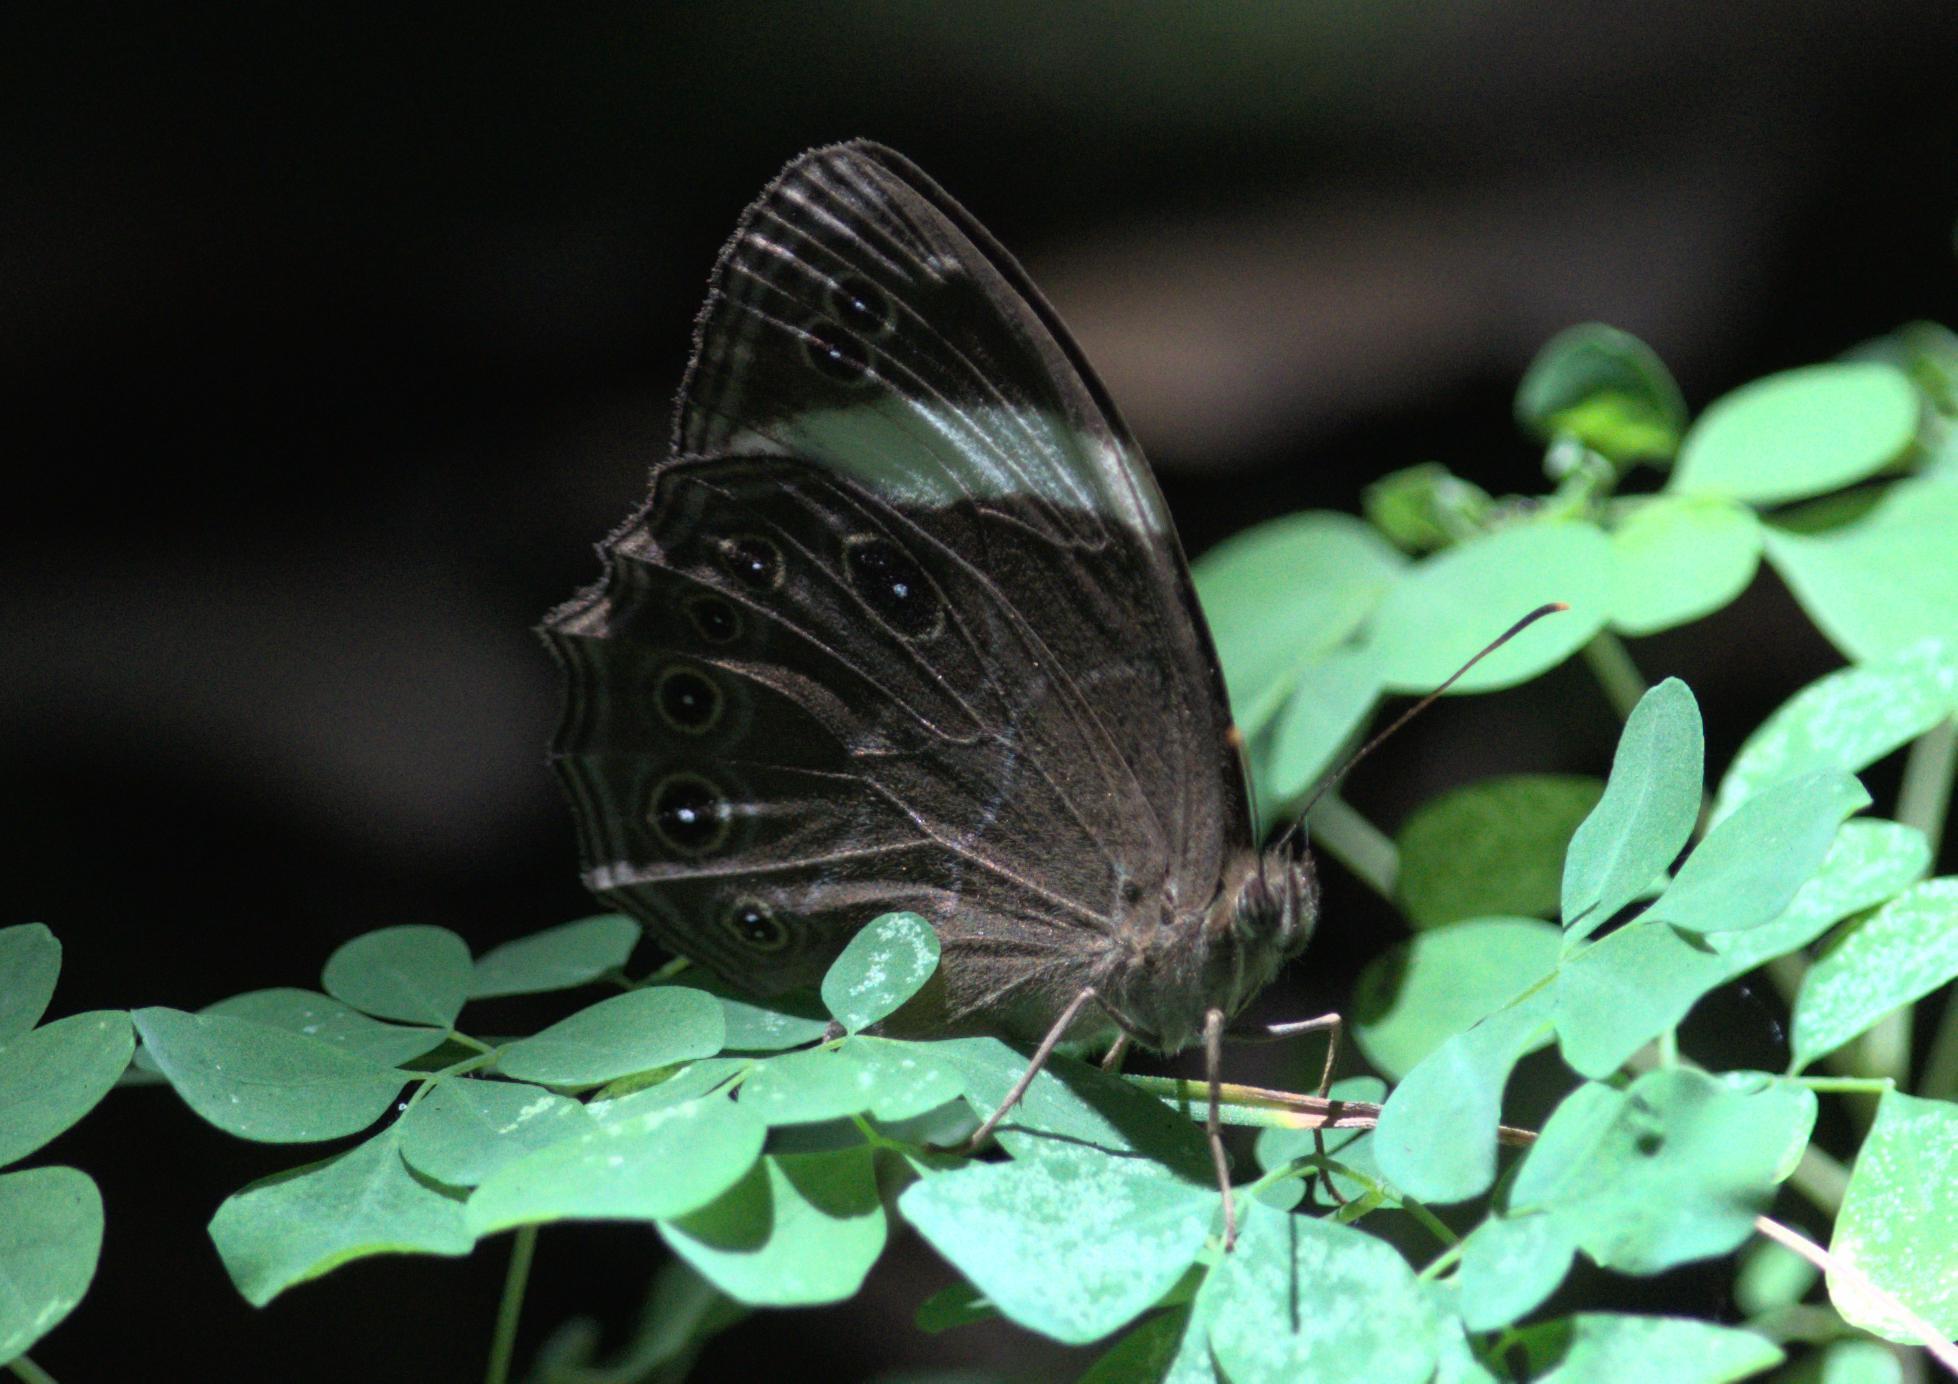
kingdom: Animalia
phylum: Arthropoda
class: Insecta
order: Lepidoptera
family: Nymphalidae
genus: Lethe
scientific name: Lethe verma
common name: Straight-banded treebrown
